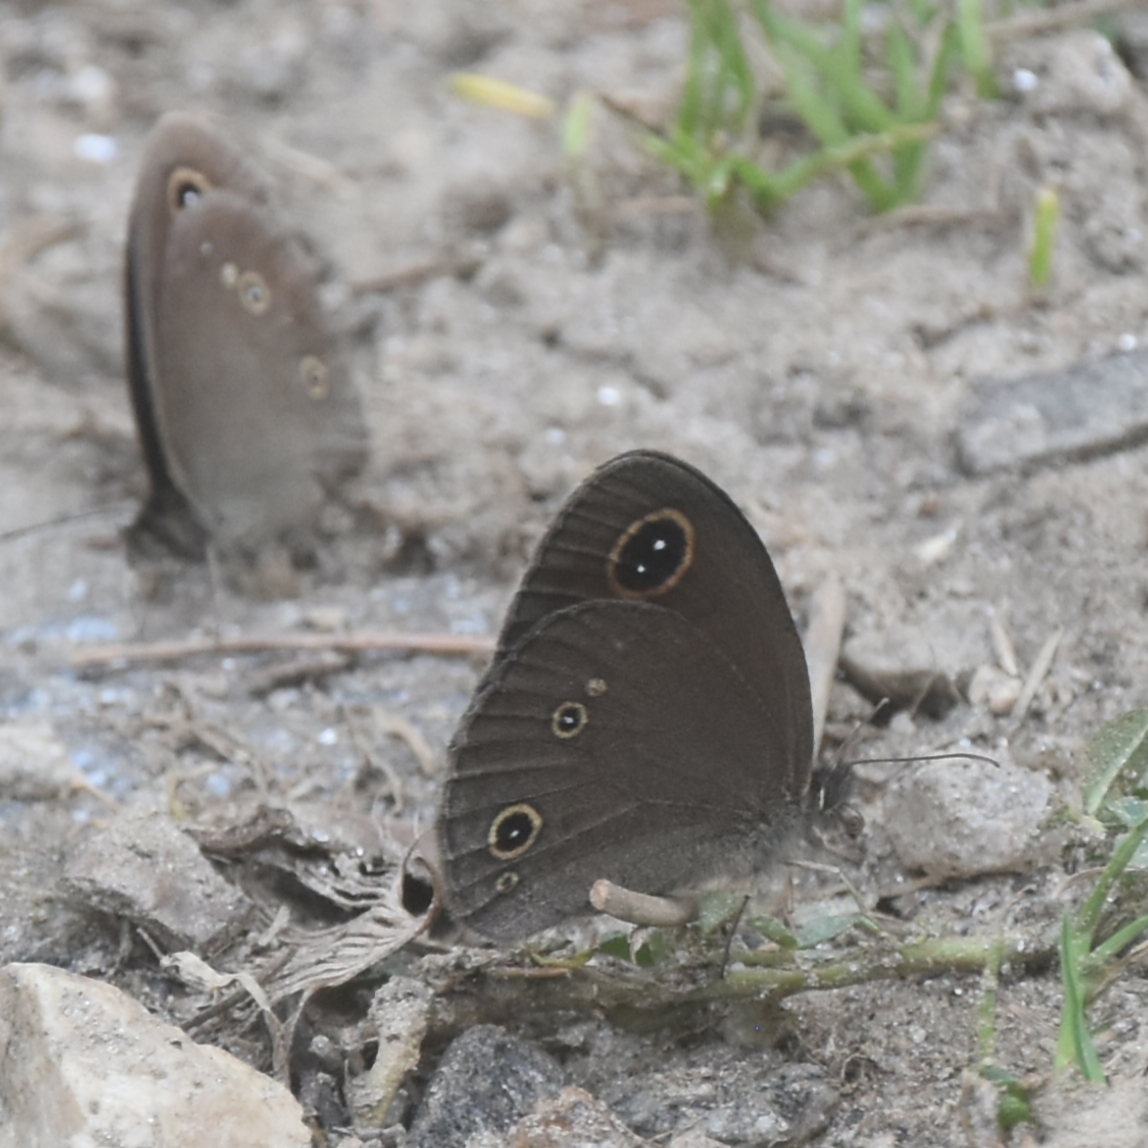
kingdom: Animalia
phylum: Arthropoda
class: Insecta
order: Lepidoptera
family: Nymphalidae
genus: Callerebia
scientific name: Callerebia nirmala
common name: Common argus
